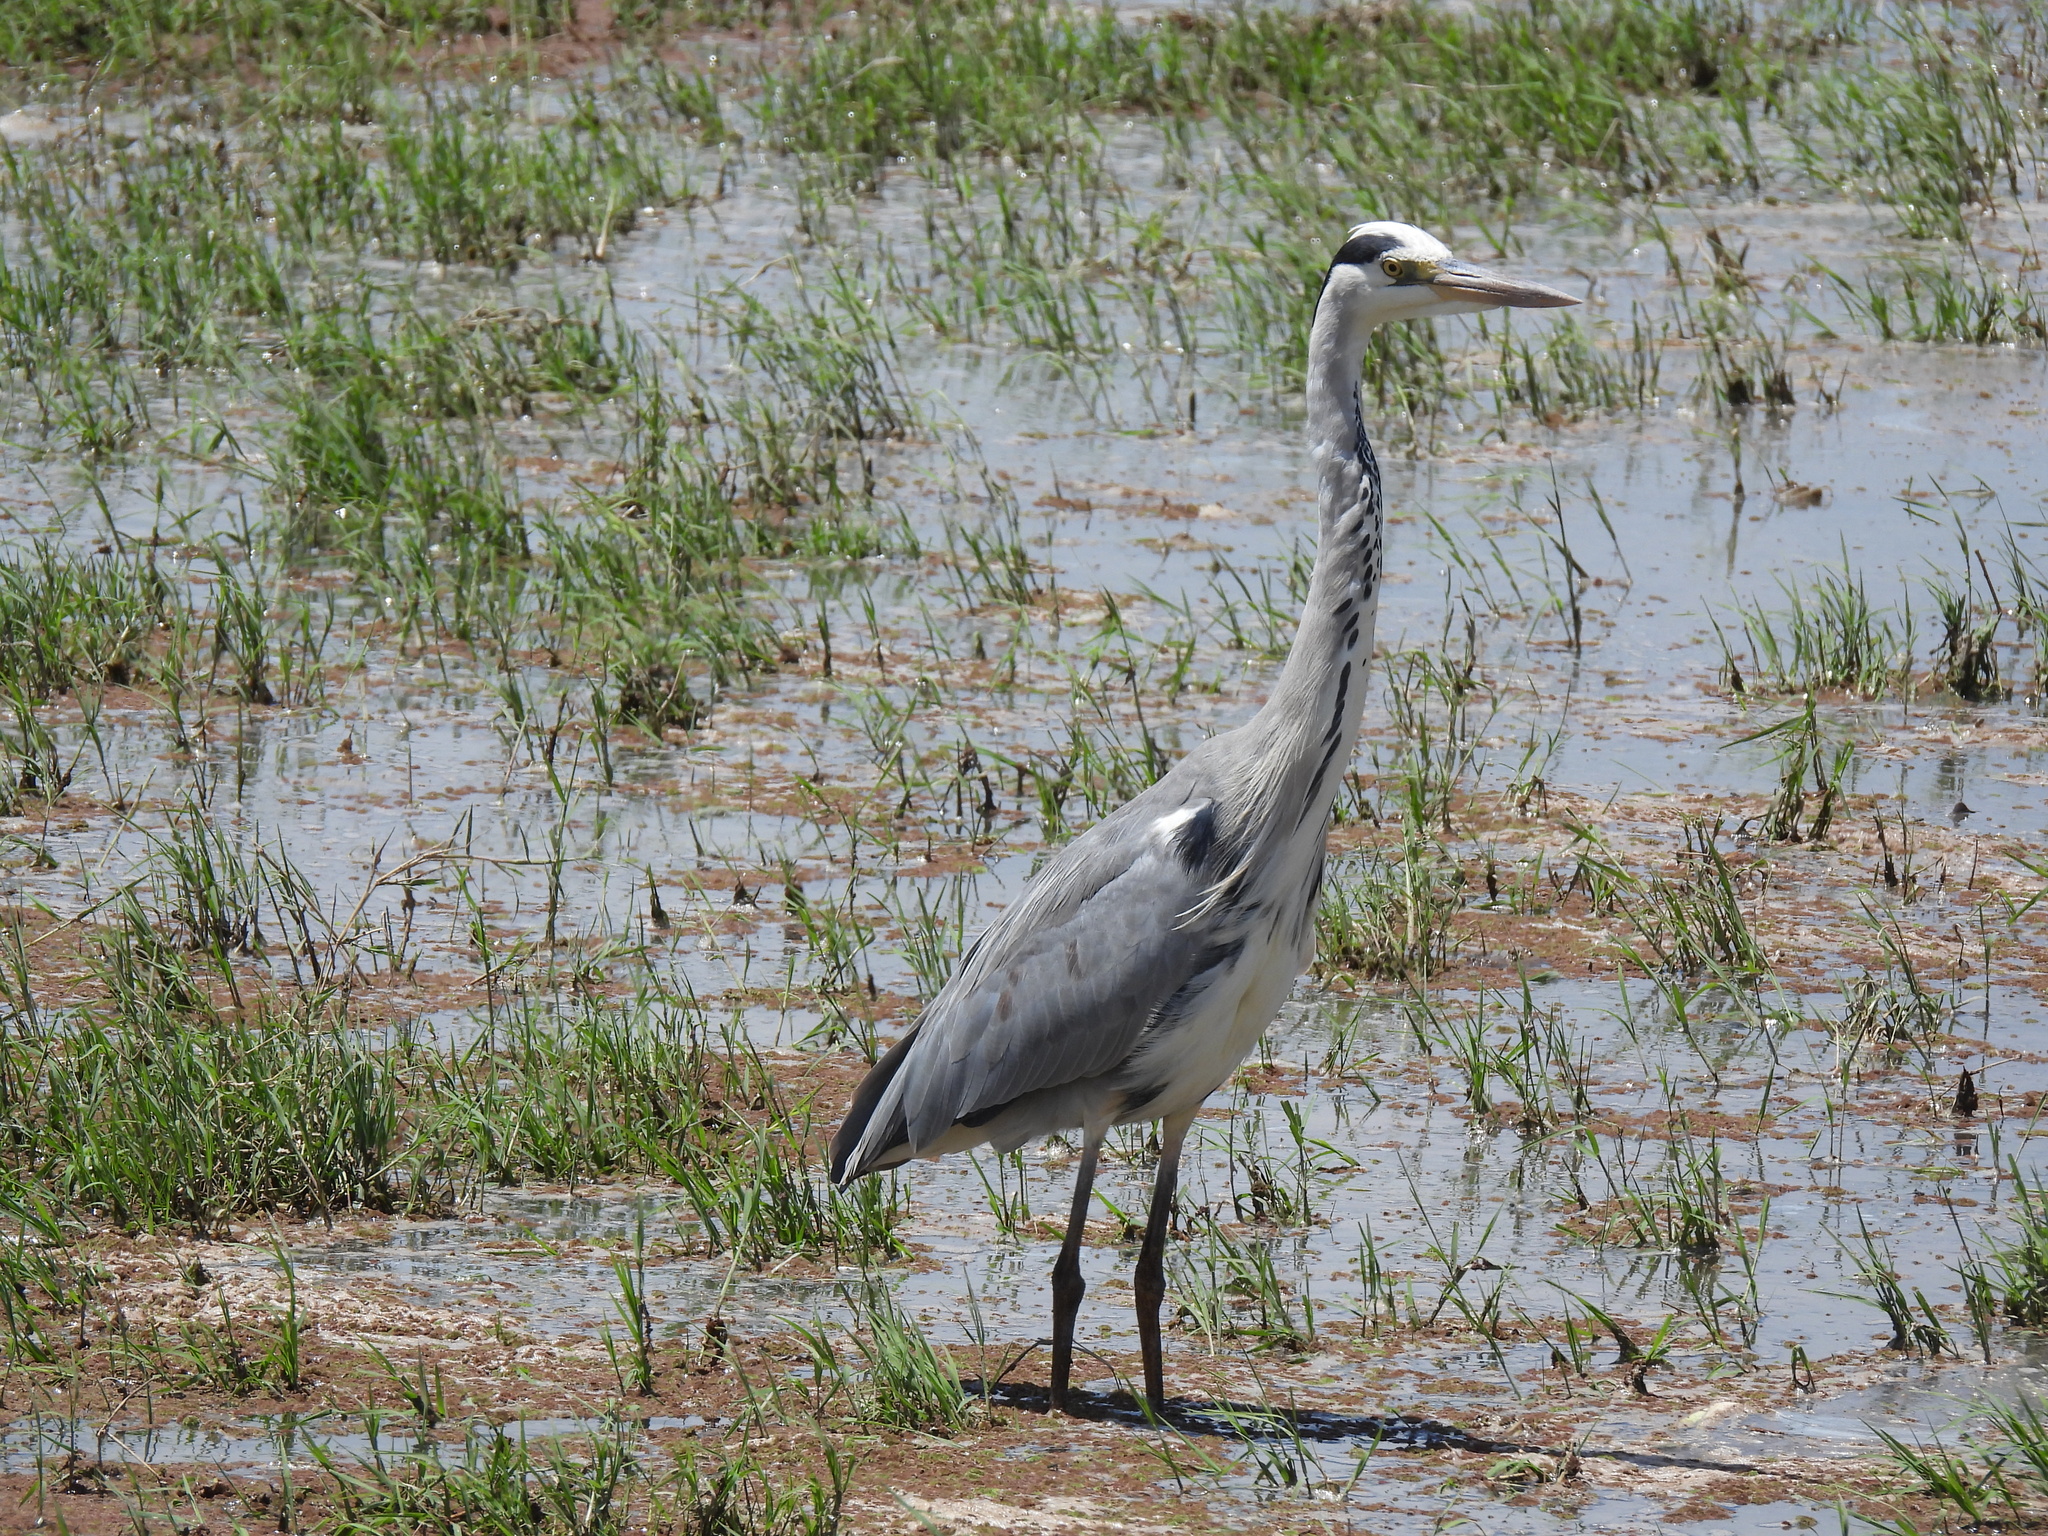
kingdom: Animalia
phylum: Chordata
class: Aves
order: Pelecaniformes
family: Ardeidae
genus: Ardea
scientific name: Ardea cinerea
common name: Grey heron
